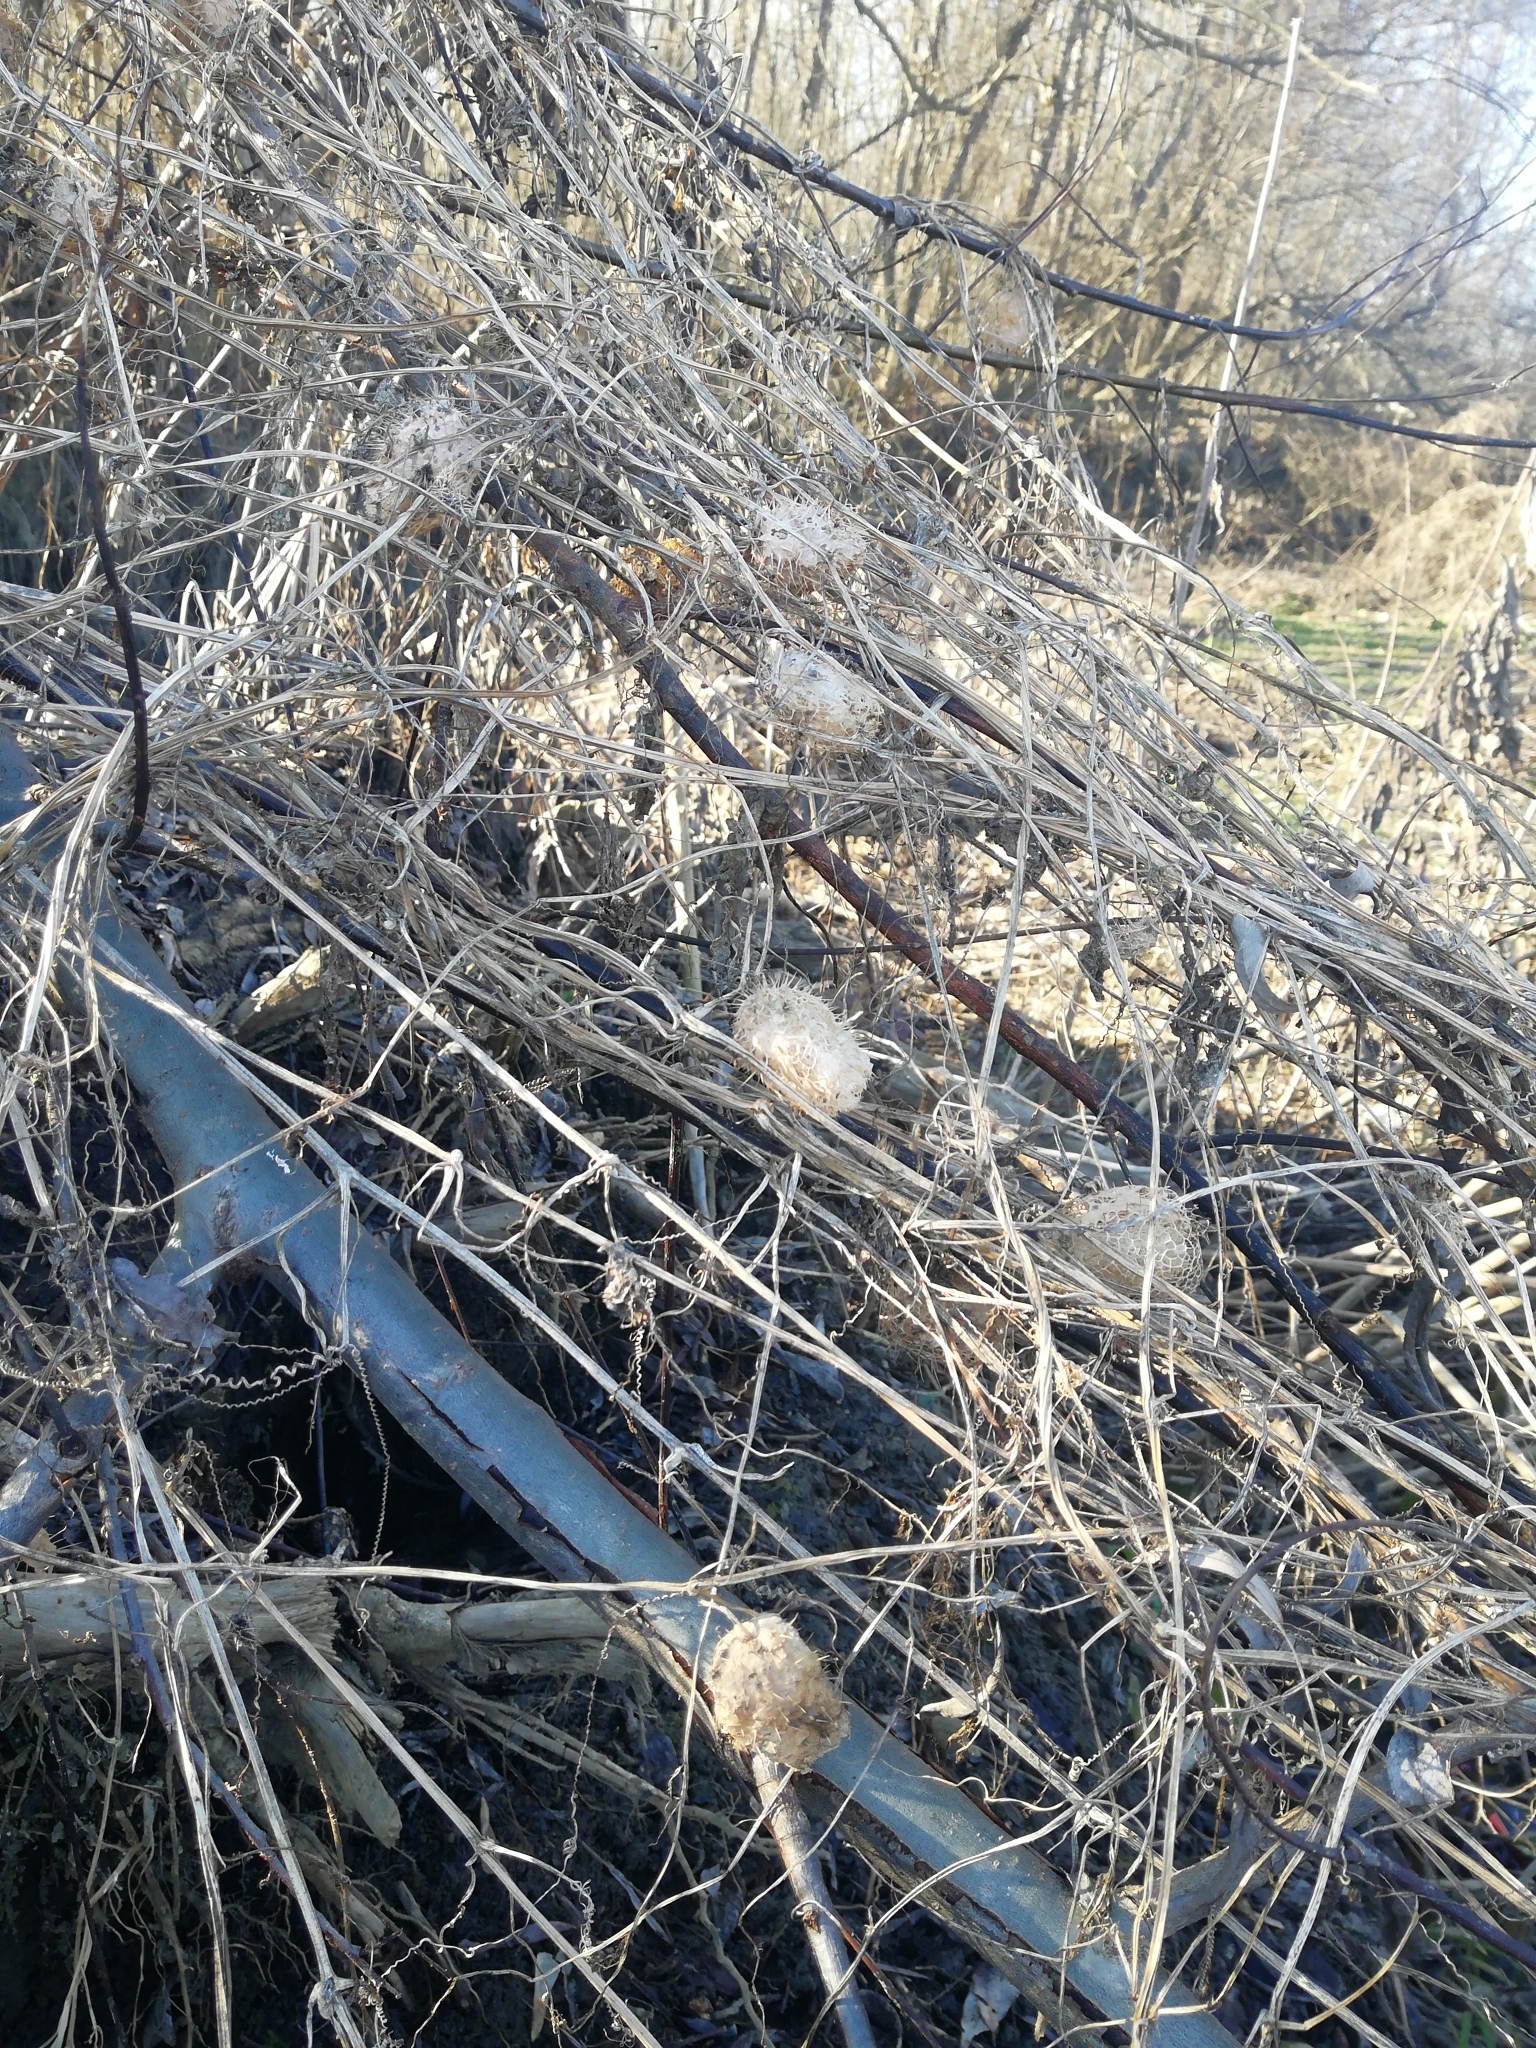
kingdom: Plantae
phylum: Tracheophyta
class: Magnoliopsida
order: Cucurbitales
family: Cucurbitaceae
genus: Echinocystis
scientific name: Echinocystis lobata
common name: Wild cucumber
